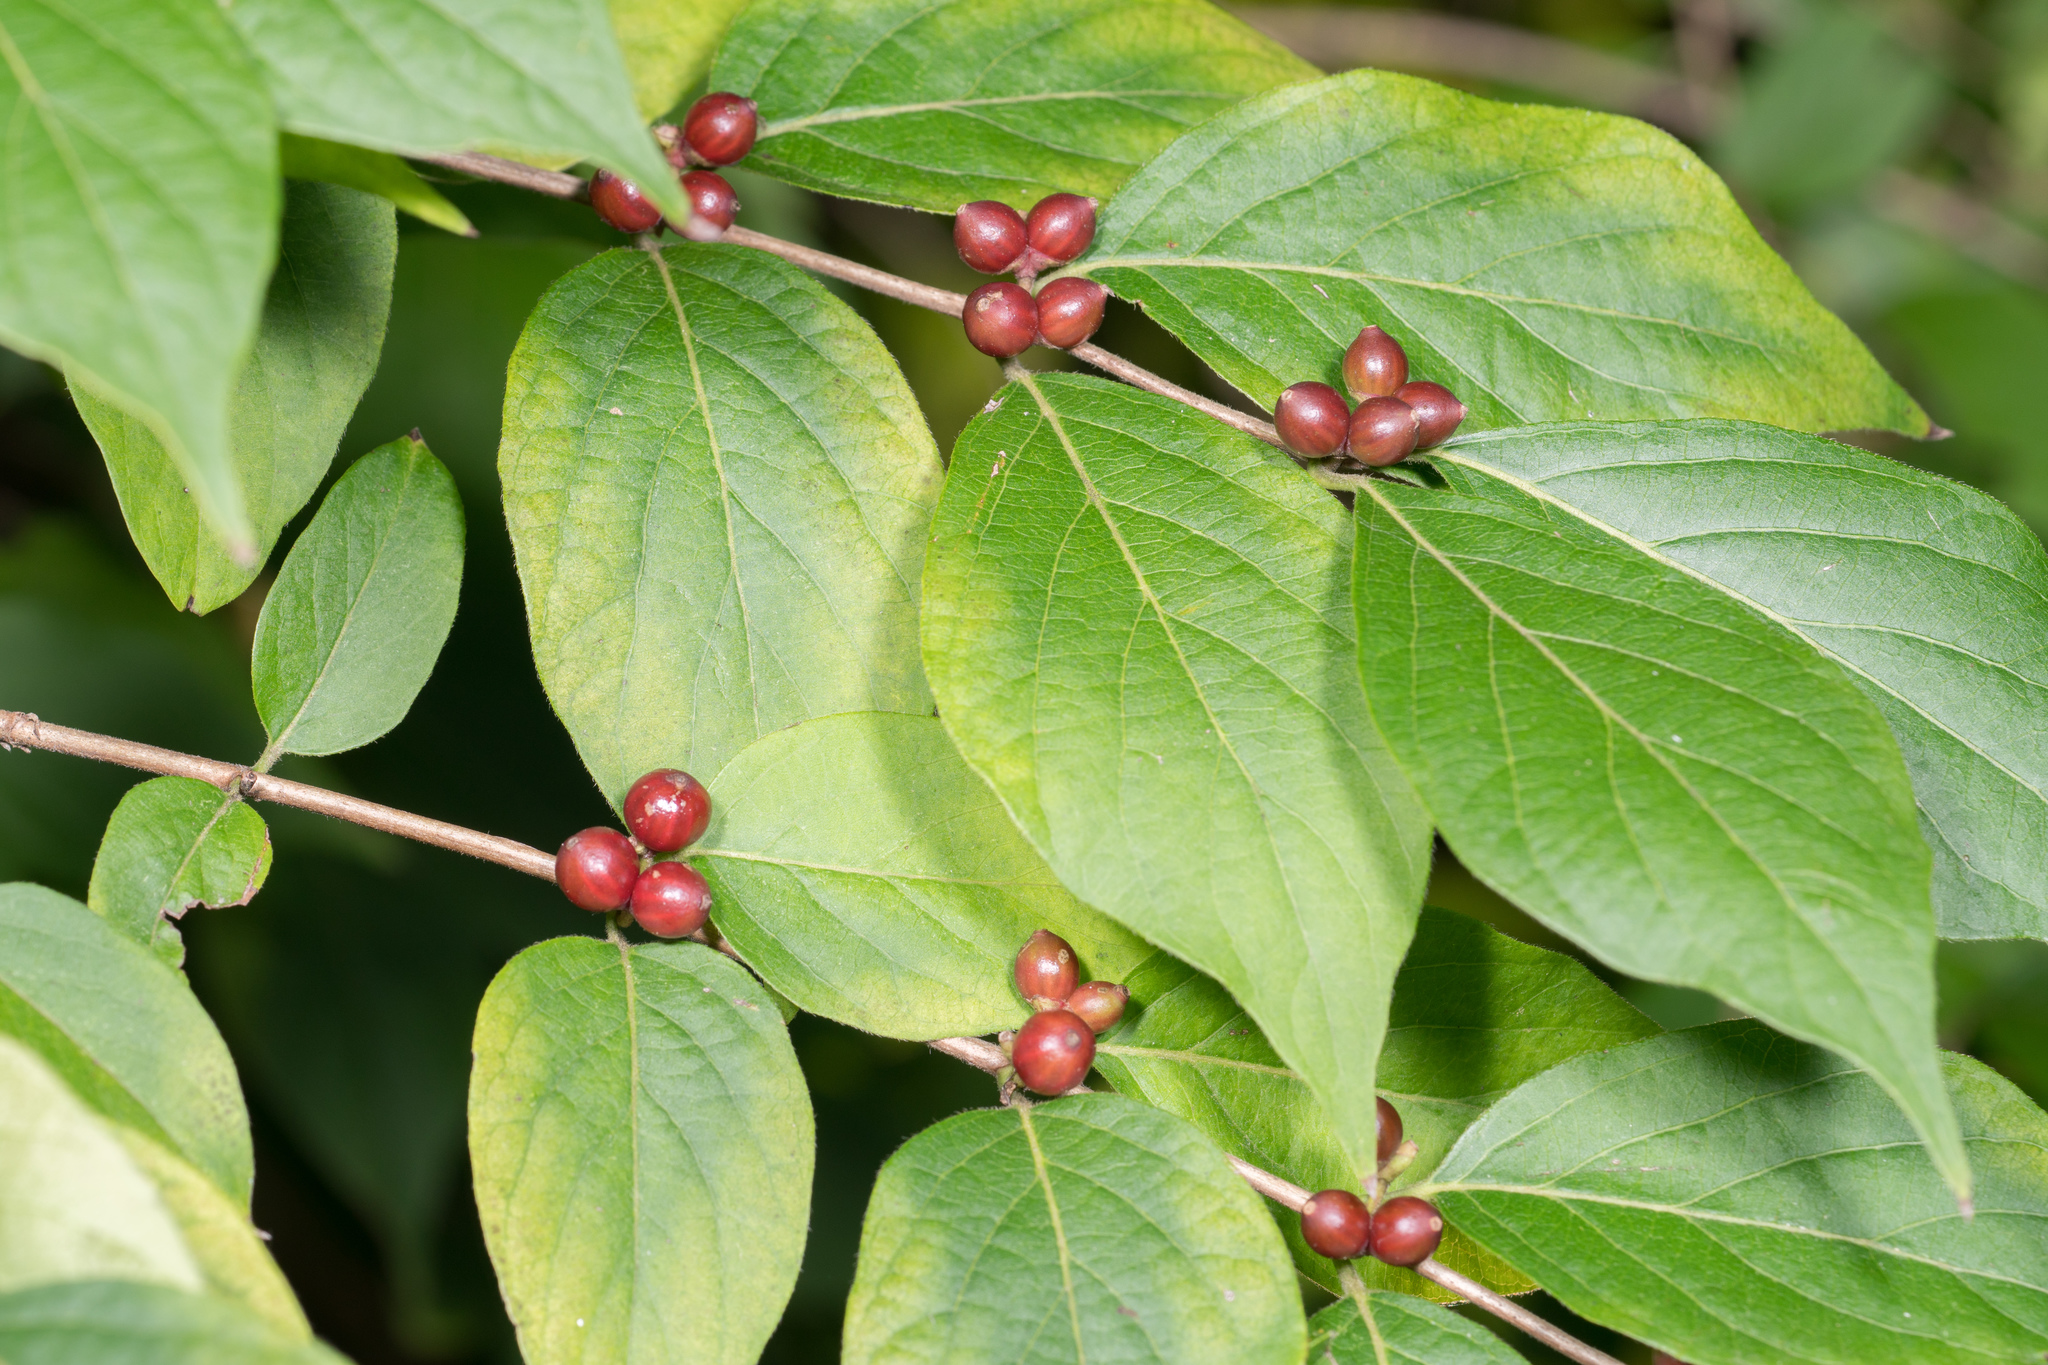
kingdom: Plantae
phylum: Tracheophyta
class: Magnoliopsida
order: Dipsacales
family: Caprifoliaceae
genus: Lonicera
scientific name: Lonicera maackii
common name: Amur honeysuckle
